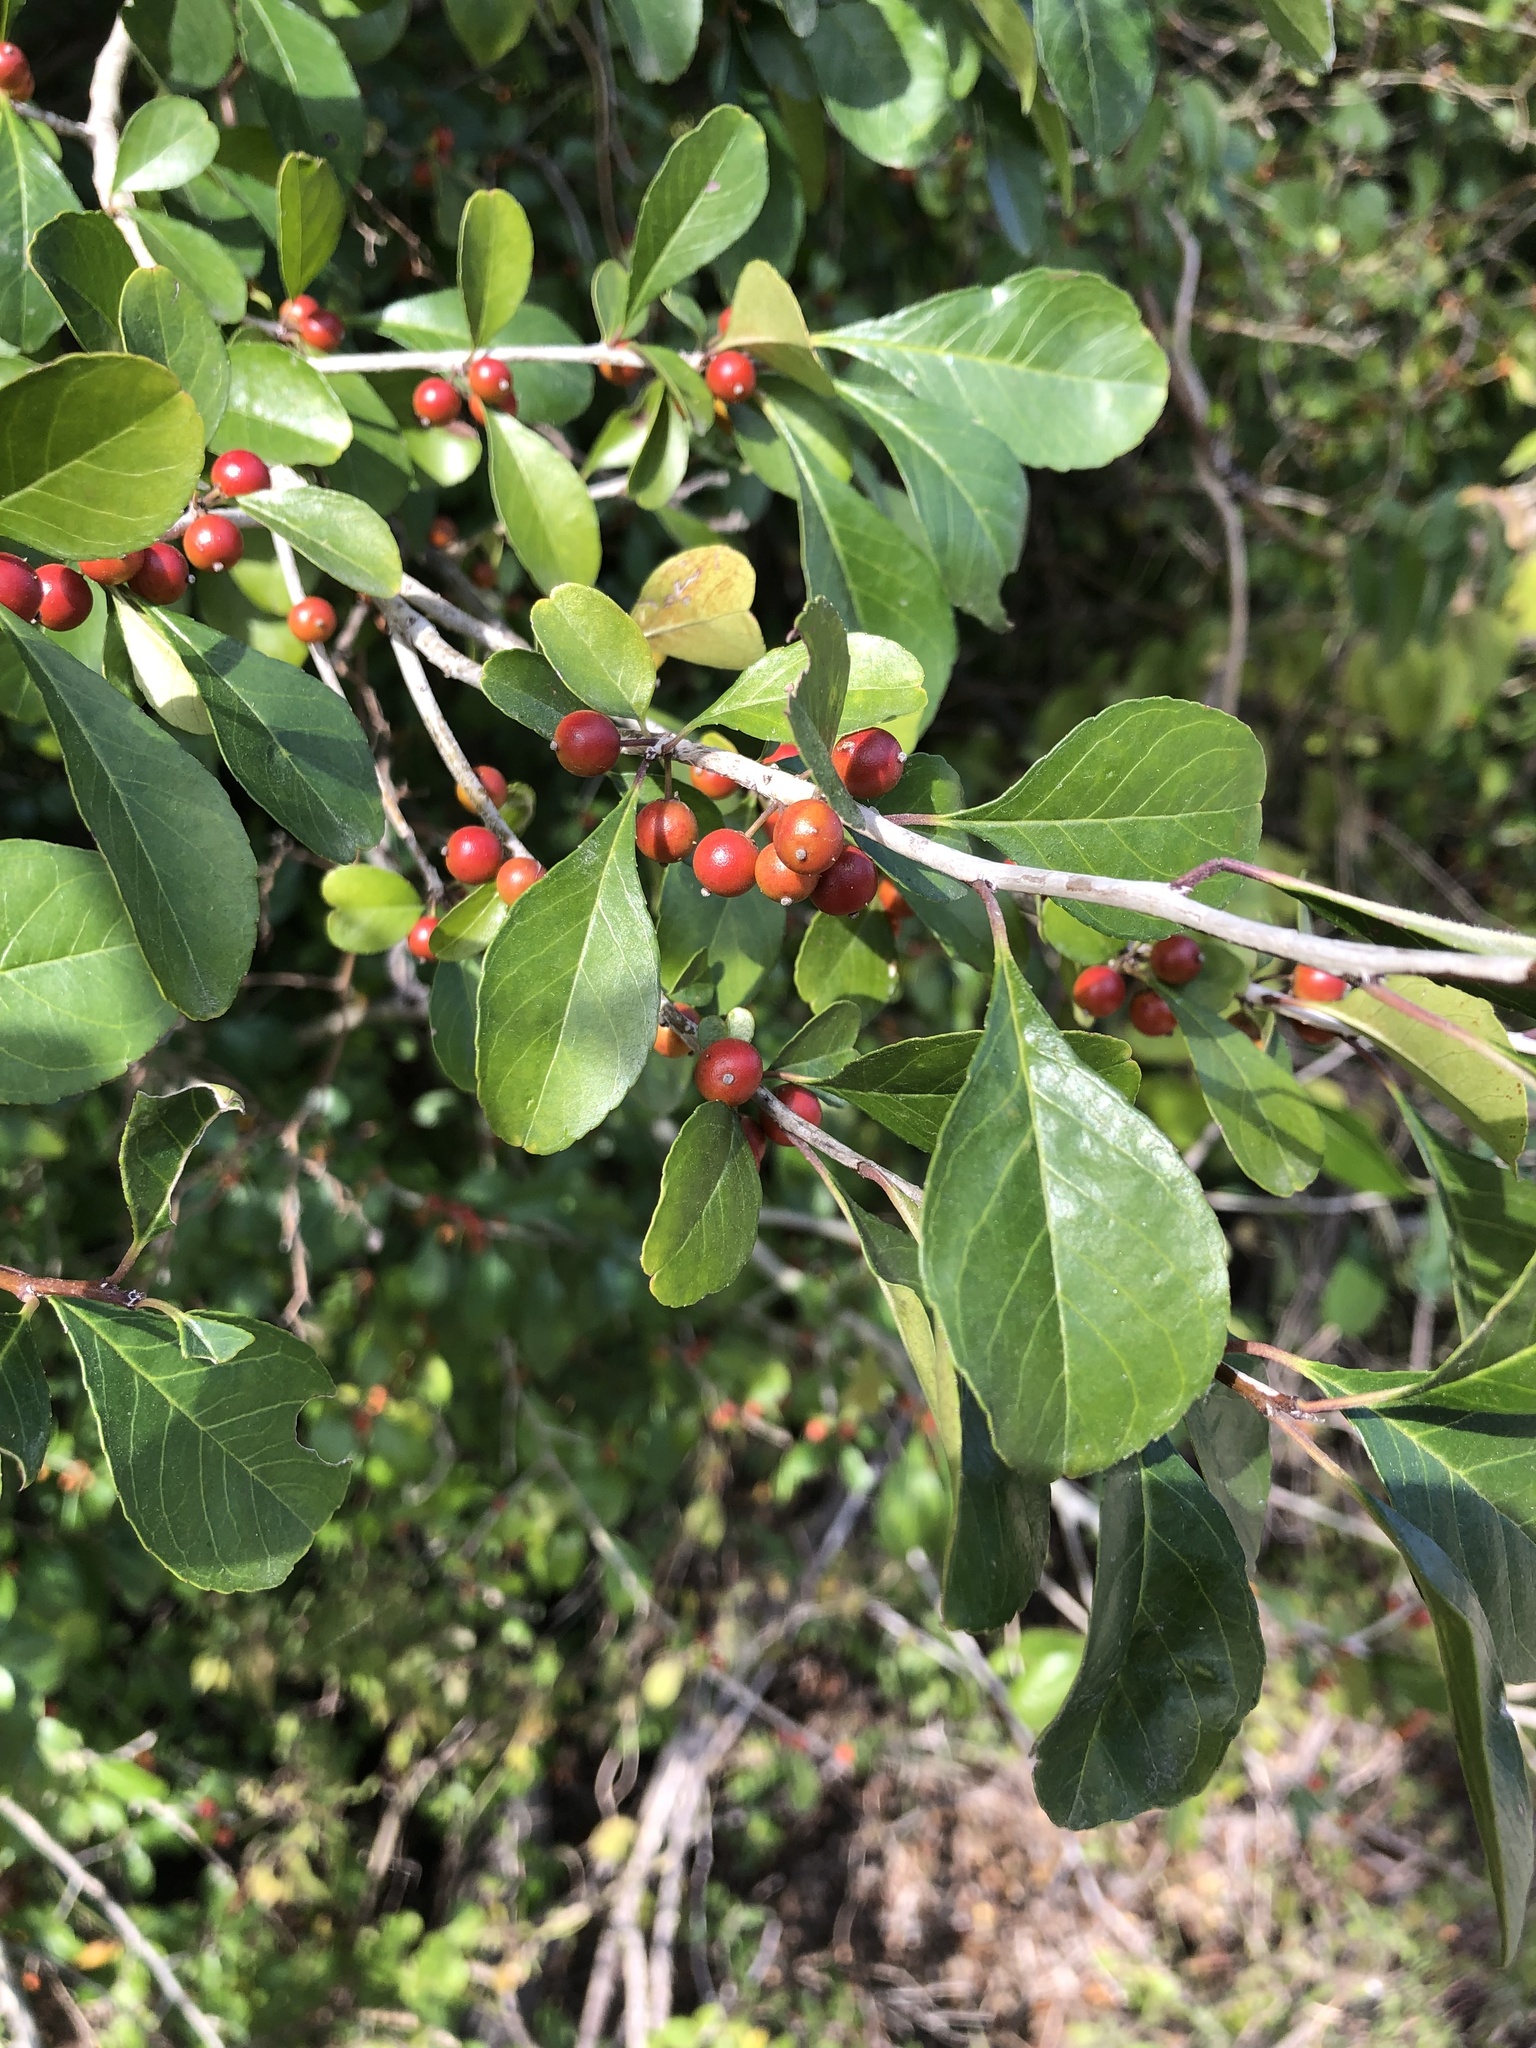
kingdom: Plantae
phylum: Tracheophyta
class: Magnoliopsida
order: Aquifoliales
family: Aquifoliaceae
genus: Ilex
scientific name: Ilex decidua
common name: Possum-haw
